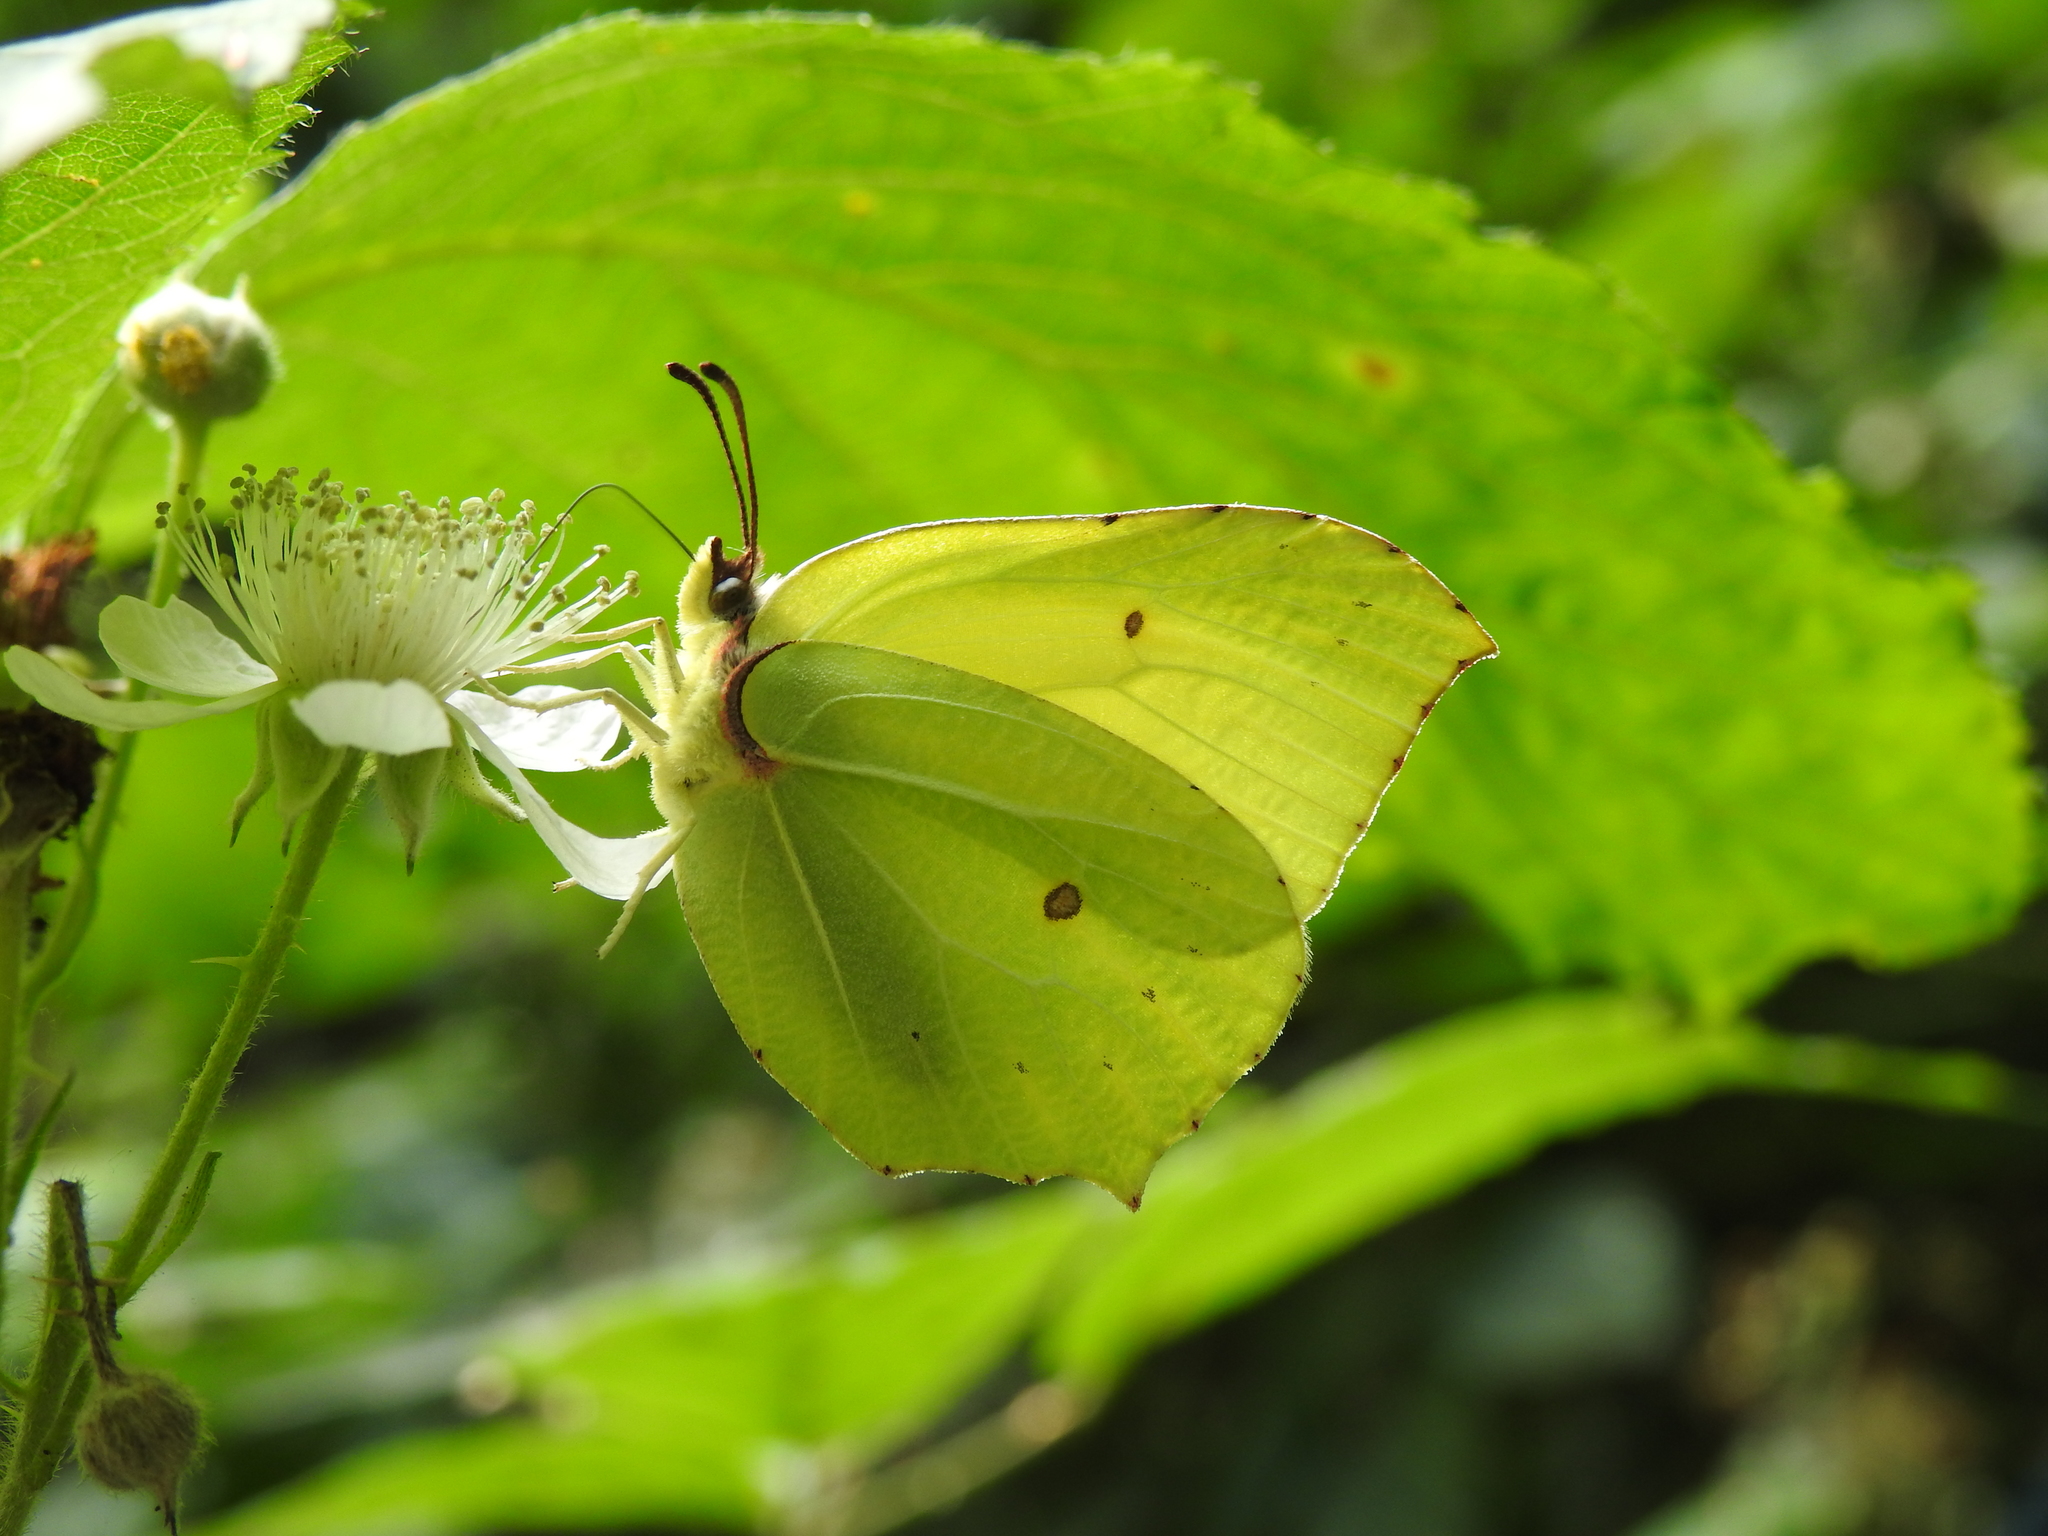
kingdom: Animalia
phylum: Arthropoda
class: Insecta
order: Lepidoptera
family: Pieridae
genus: Gonepteryx
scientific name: Gonepteryx rhamni
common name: Brimstone
